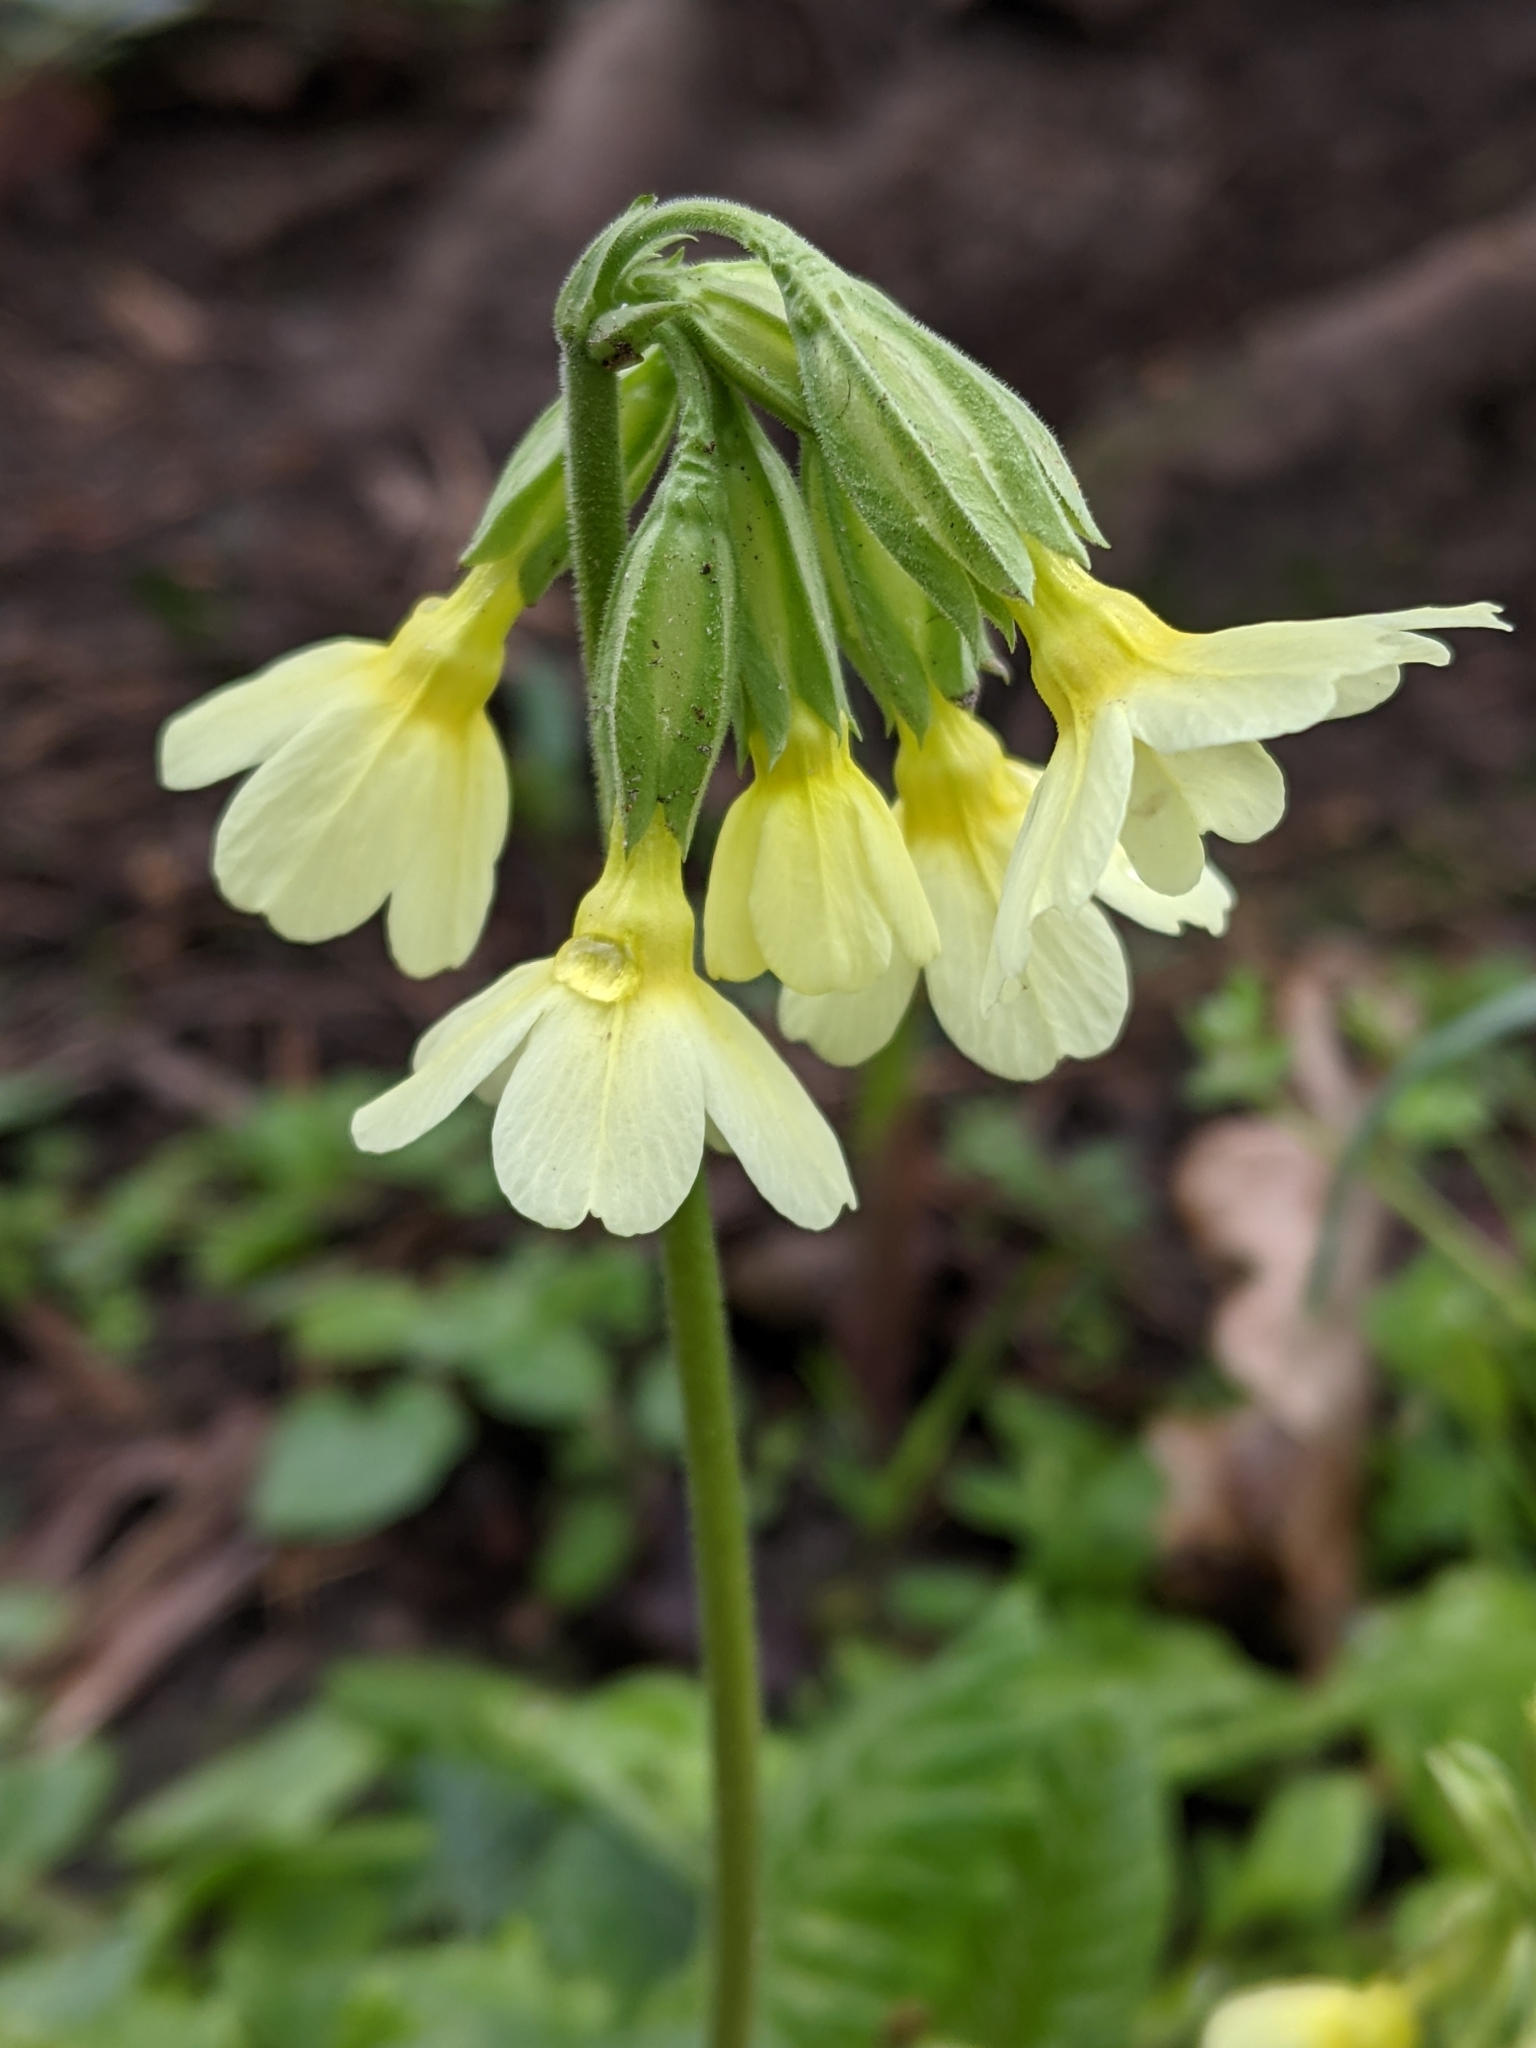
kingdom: Plantae
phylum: Tracheophyta
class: Magnoliopsida
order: Ericales
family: Primulaceae
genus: Primula
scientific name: Primula elatior
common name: Oxlip
